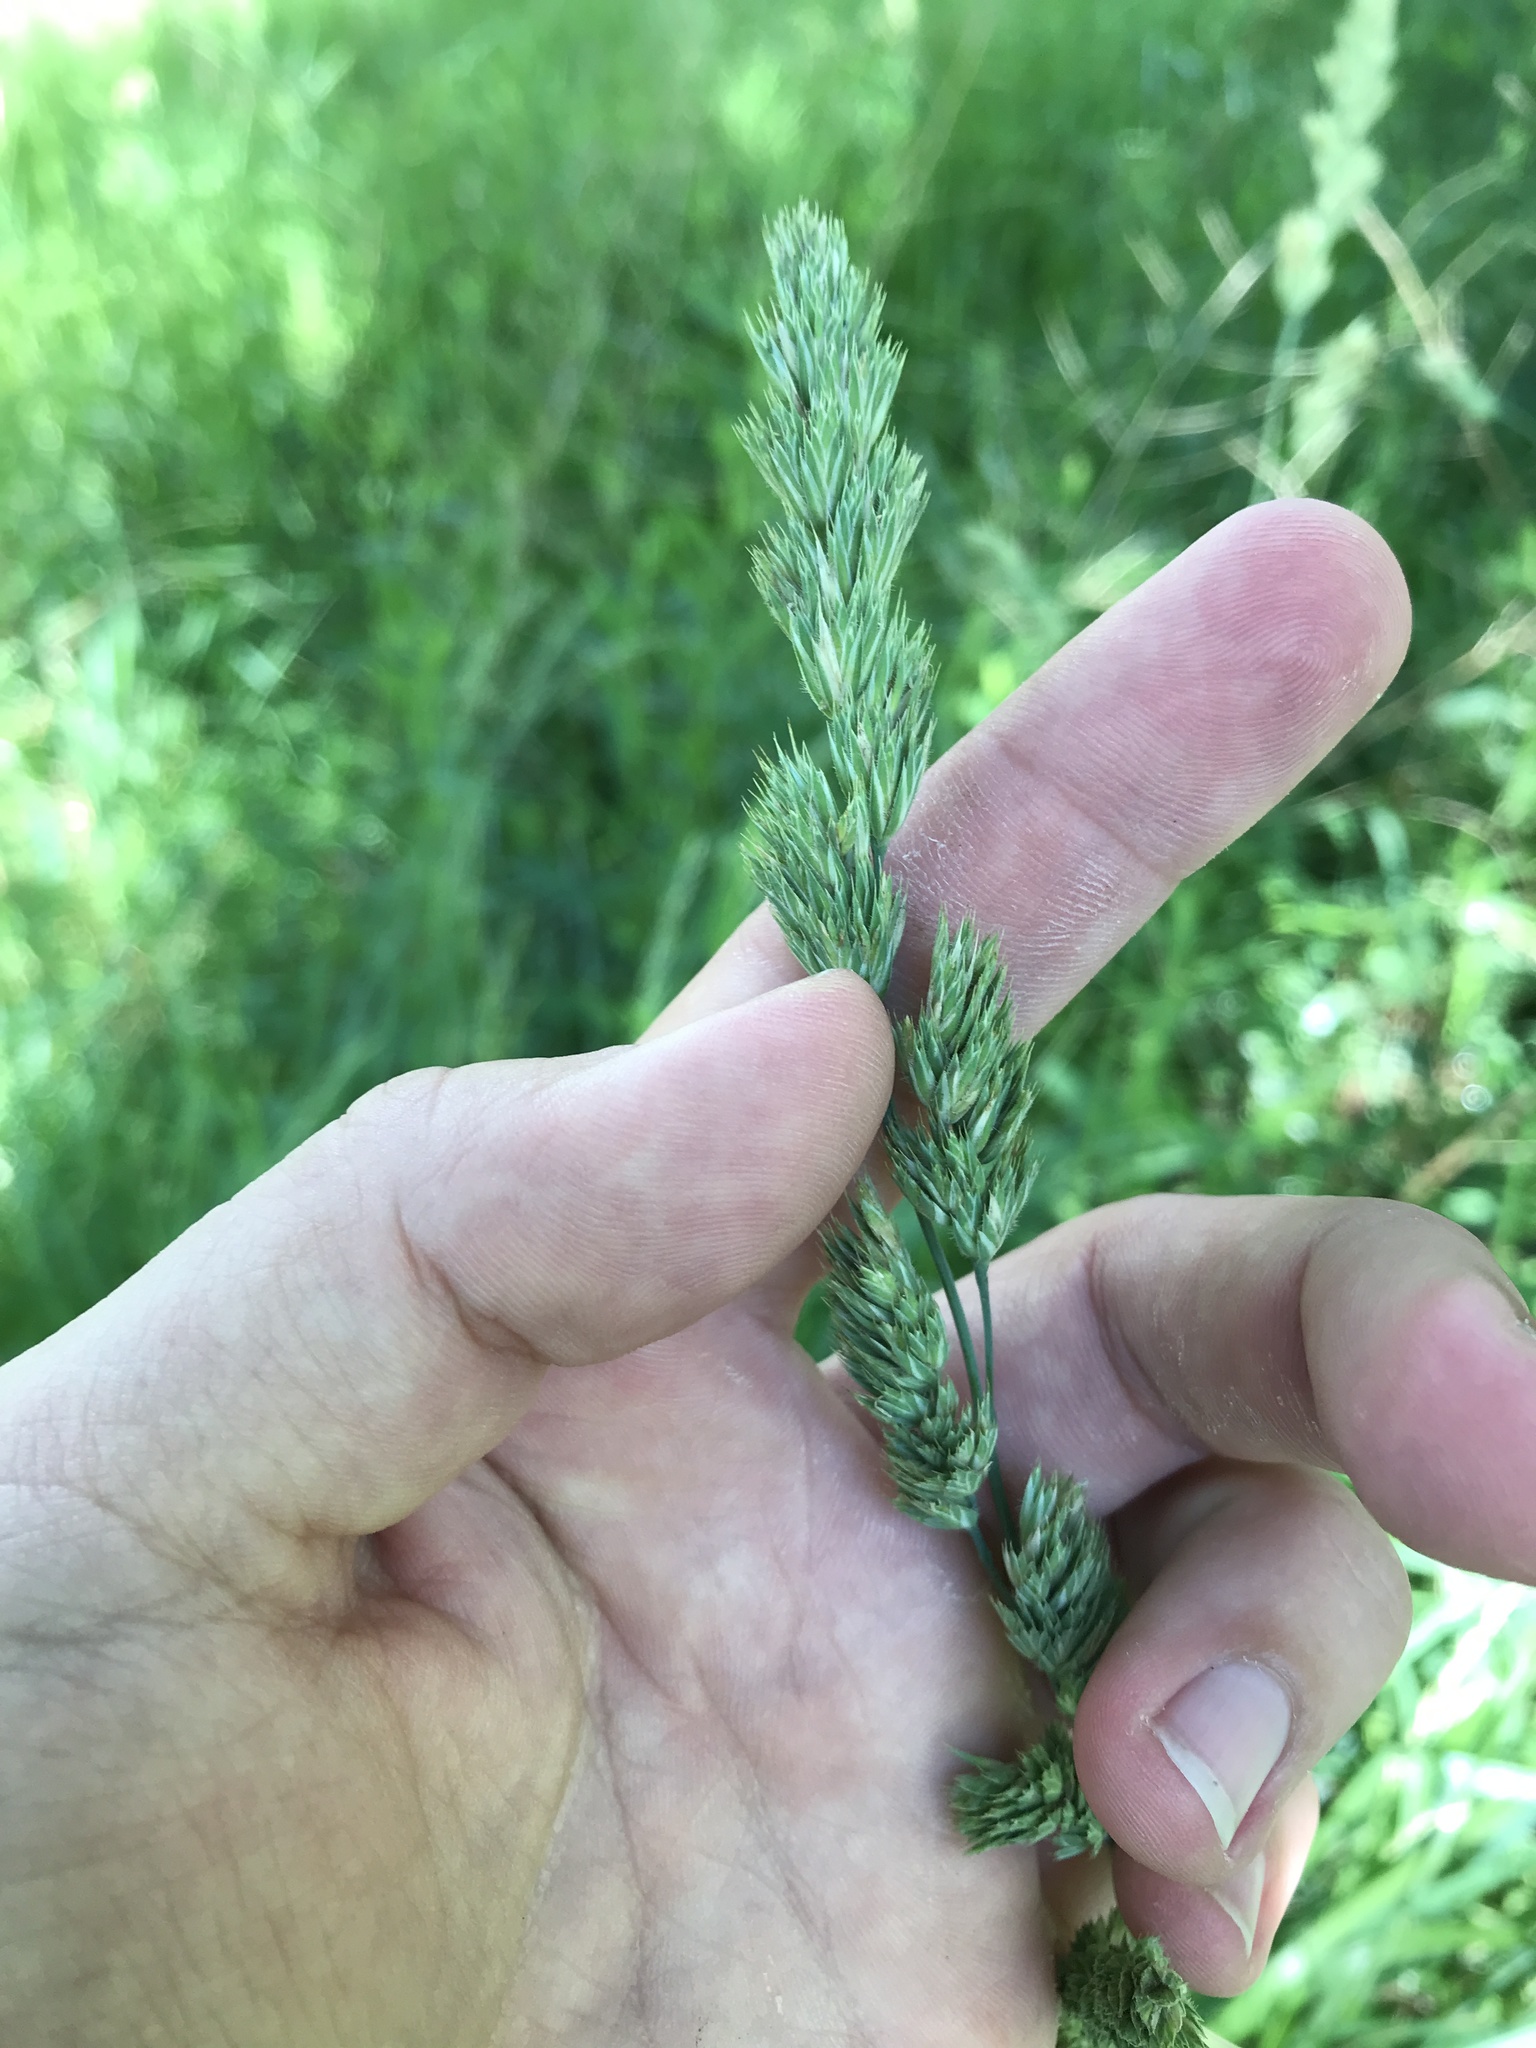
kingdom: Plantae
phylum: Tracheophyta
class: Liliopsida
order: Poales
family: Poaceae
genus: Dactylis
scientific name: Dactylis glomerata
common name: Orchardgrass
